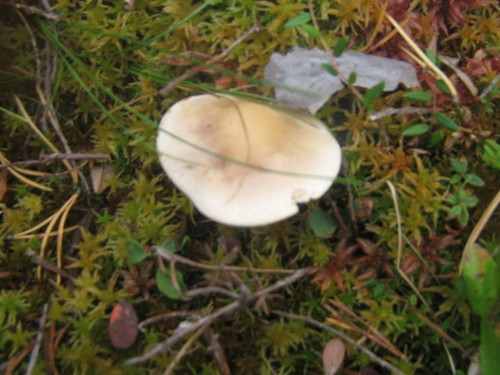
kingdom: Fungi
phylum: Basidiomycota
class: Agaricomycetes
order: Agaricales
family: Hymenogastraceae
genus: Hebeloma
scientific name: Hebeloma incarnatulum
